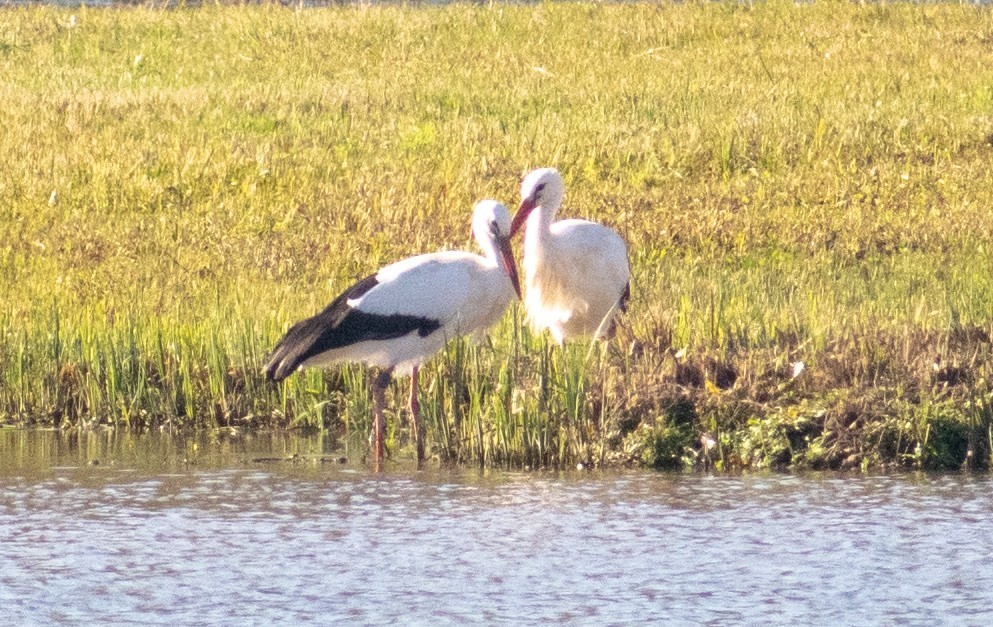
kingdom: Animalia
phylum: Chordata
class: Aves
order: Ciconiiformes
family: Ciconiidae
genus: Ciconia
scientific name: Ciconia ciconia
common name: White stork
